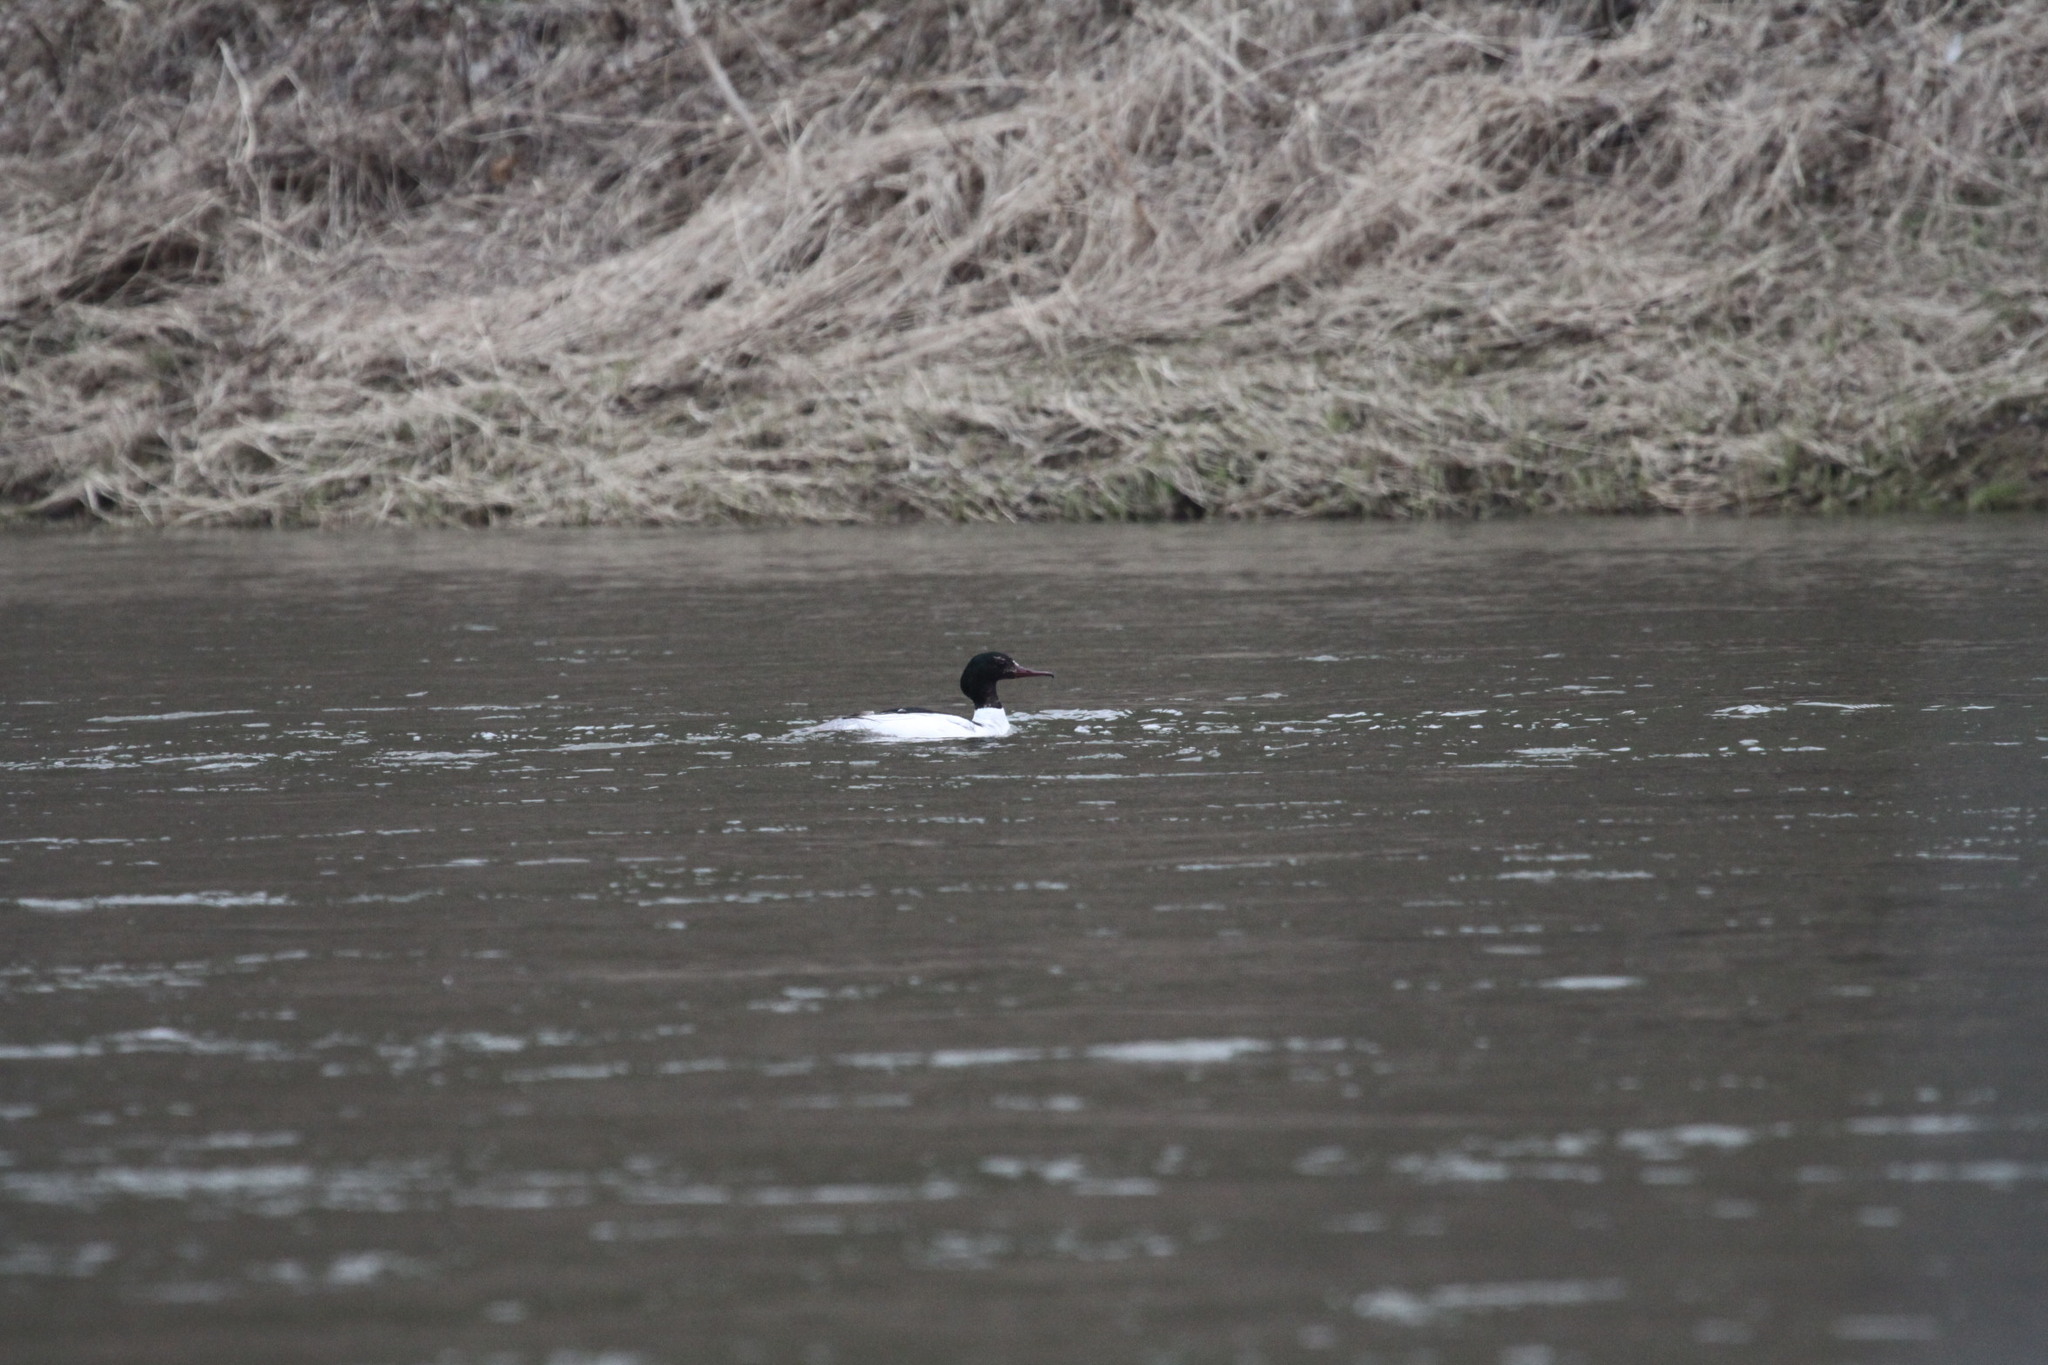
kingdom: Animalia
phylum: Chordata
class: Aves
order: Anseriformes
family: Anatidae
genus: Mergus
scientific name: Mergus merganser
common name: Common merganser
